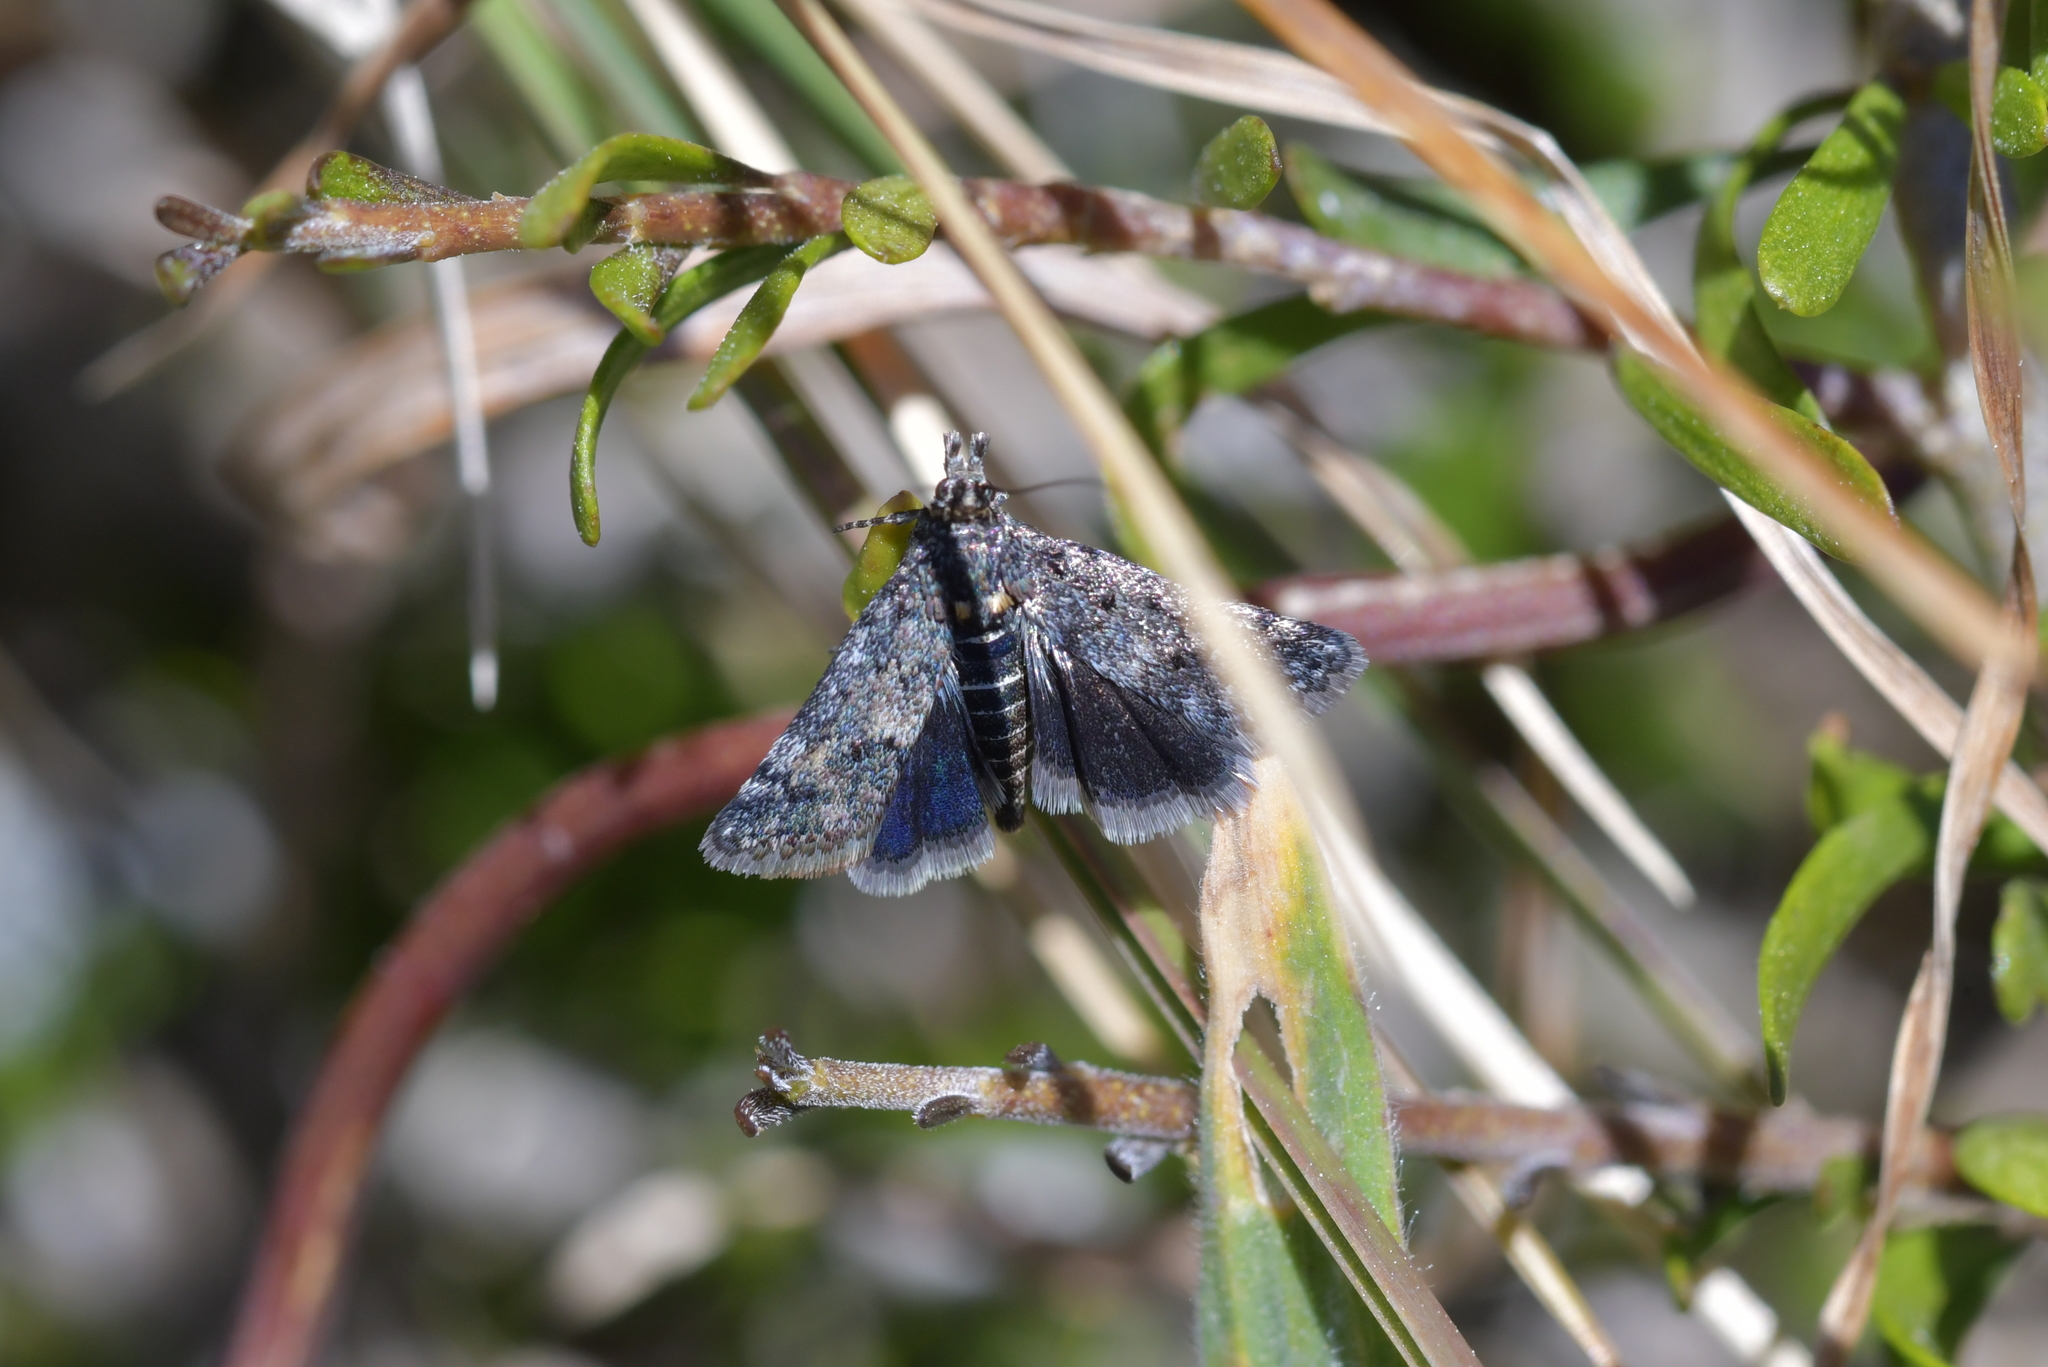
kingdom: Animalia
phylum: Arthropoda
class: Insecta
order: Lepidoptera
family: Crambidae
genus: Heliothela
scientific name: Heliothela atra
